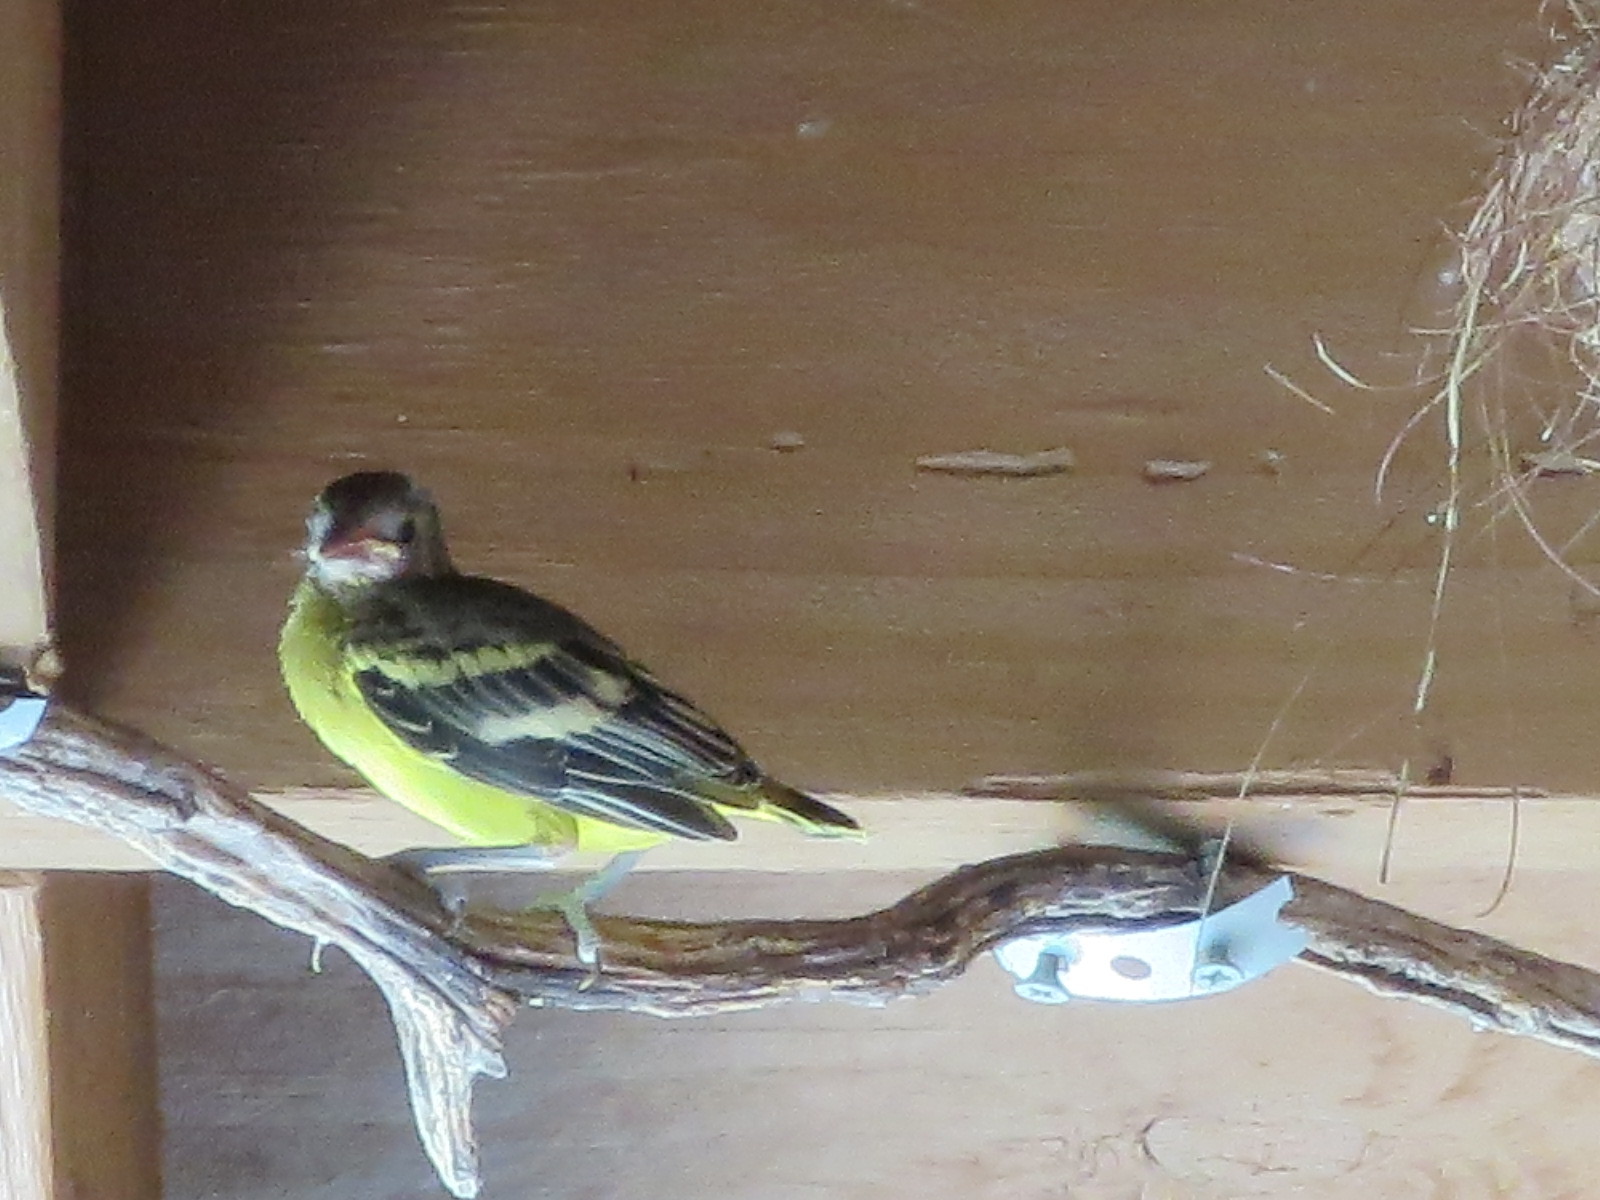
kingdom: Animalia
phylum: Chordata
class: Aves
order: Passeriformes
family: Icteridae
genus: Icterus
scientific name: Icterus parisorum
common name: Scott's oriole
